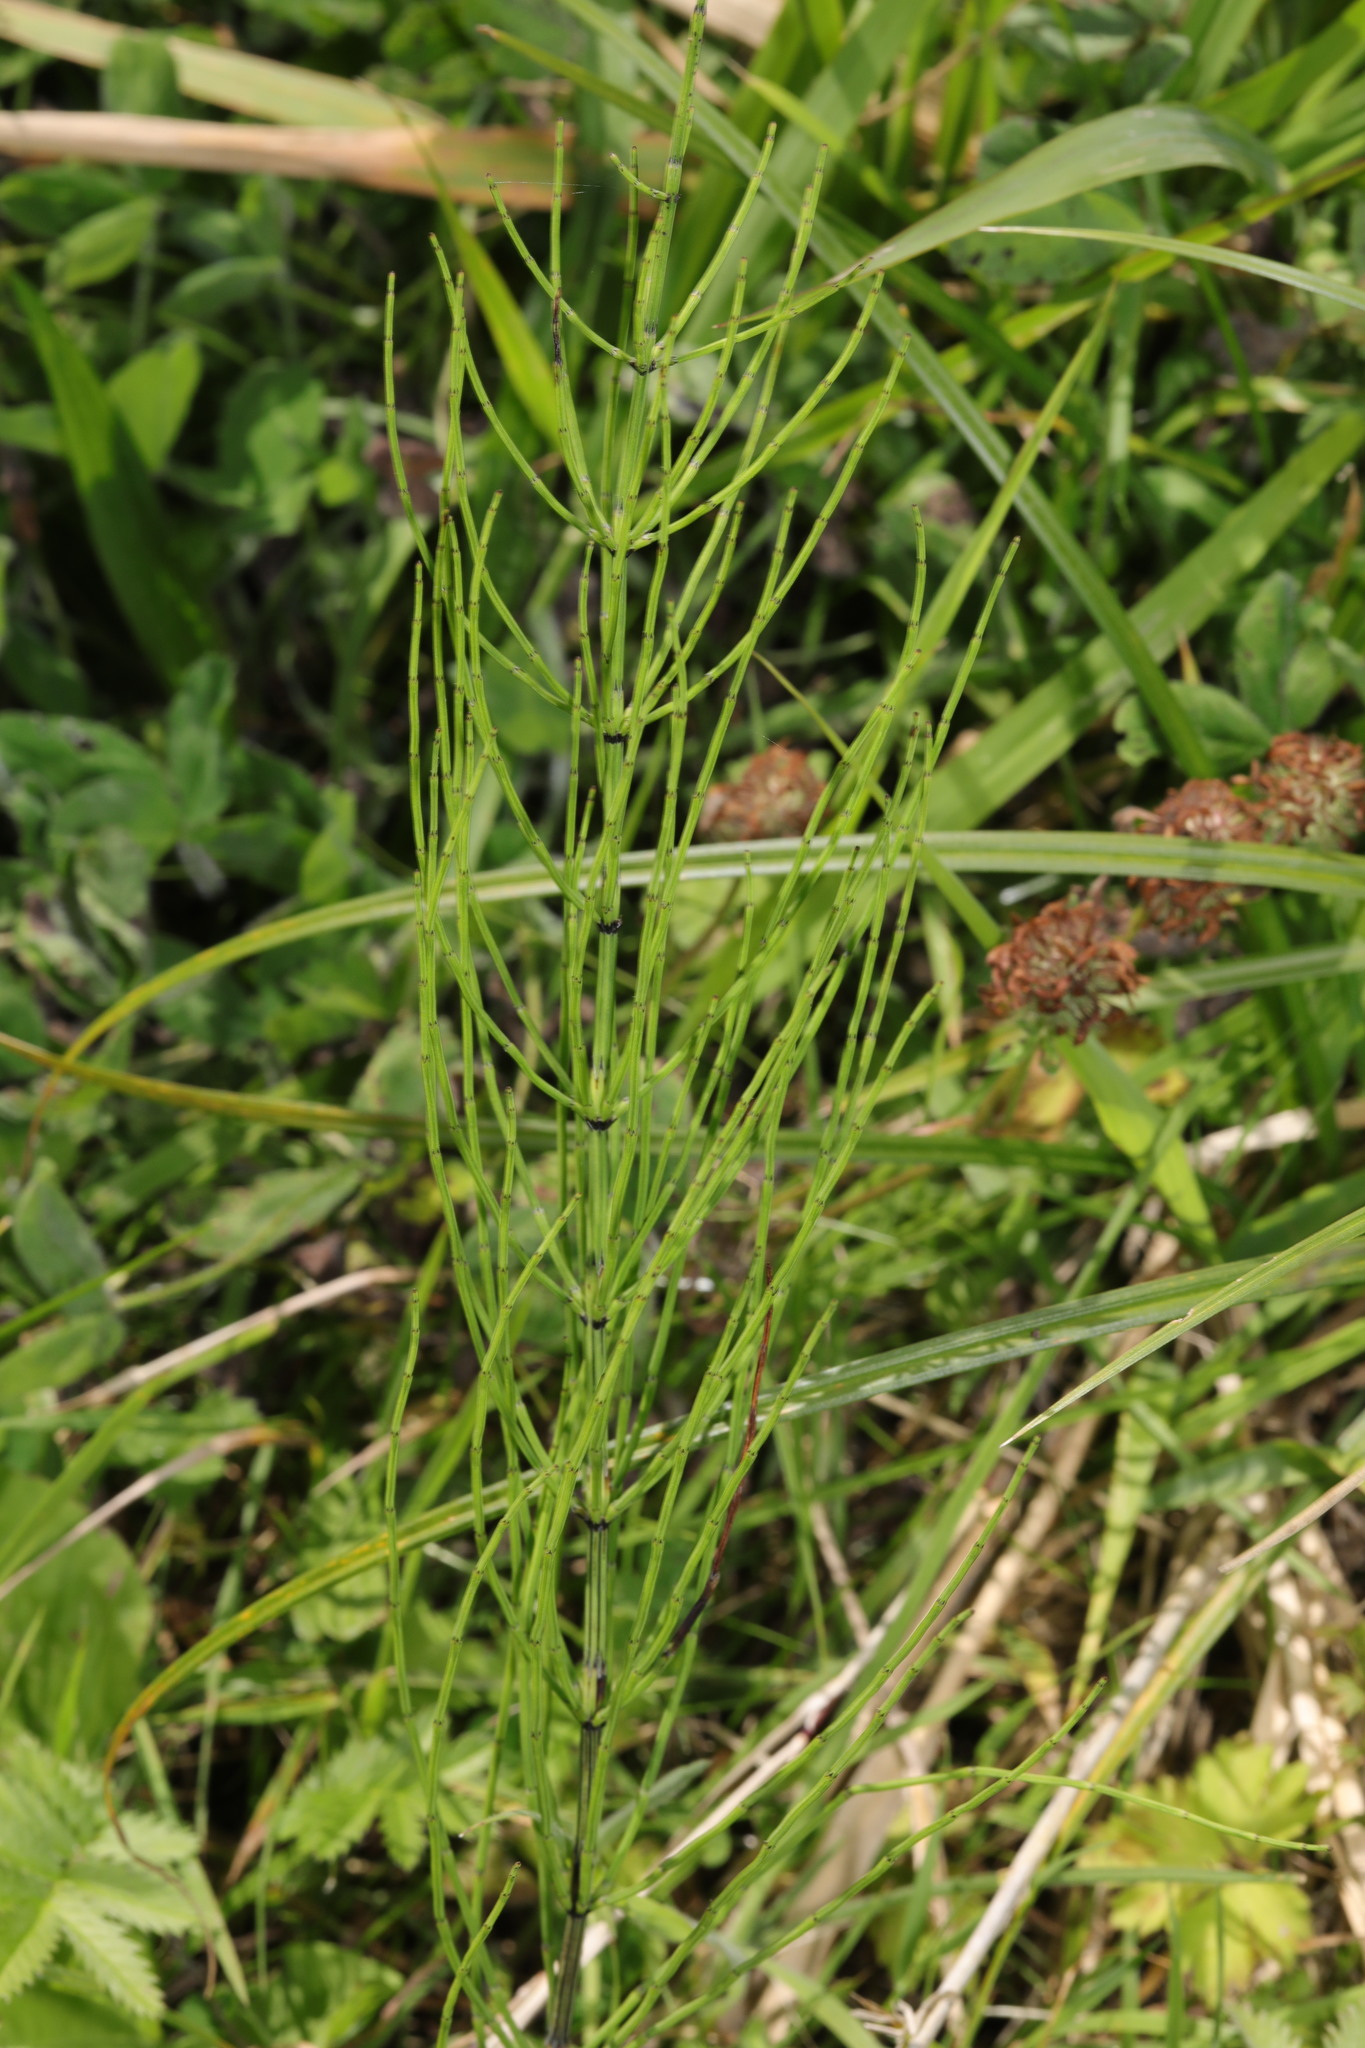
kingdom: Plantae
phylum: Tracheophyta
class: Polypodiopsida
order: Equisetales
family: Equisetaceae
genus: Equisetum
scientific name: Equisetum arvense
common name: Field horsetail
